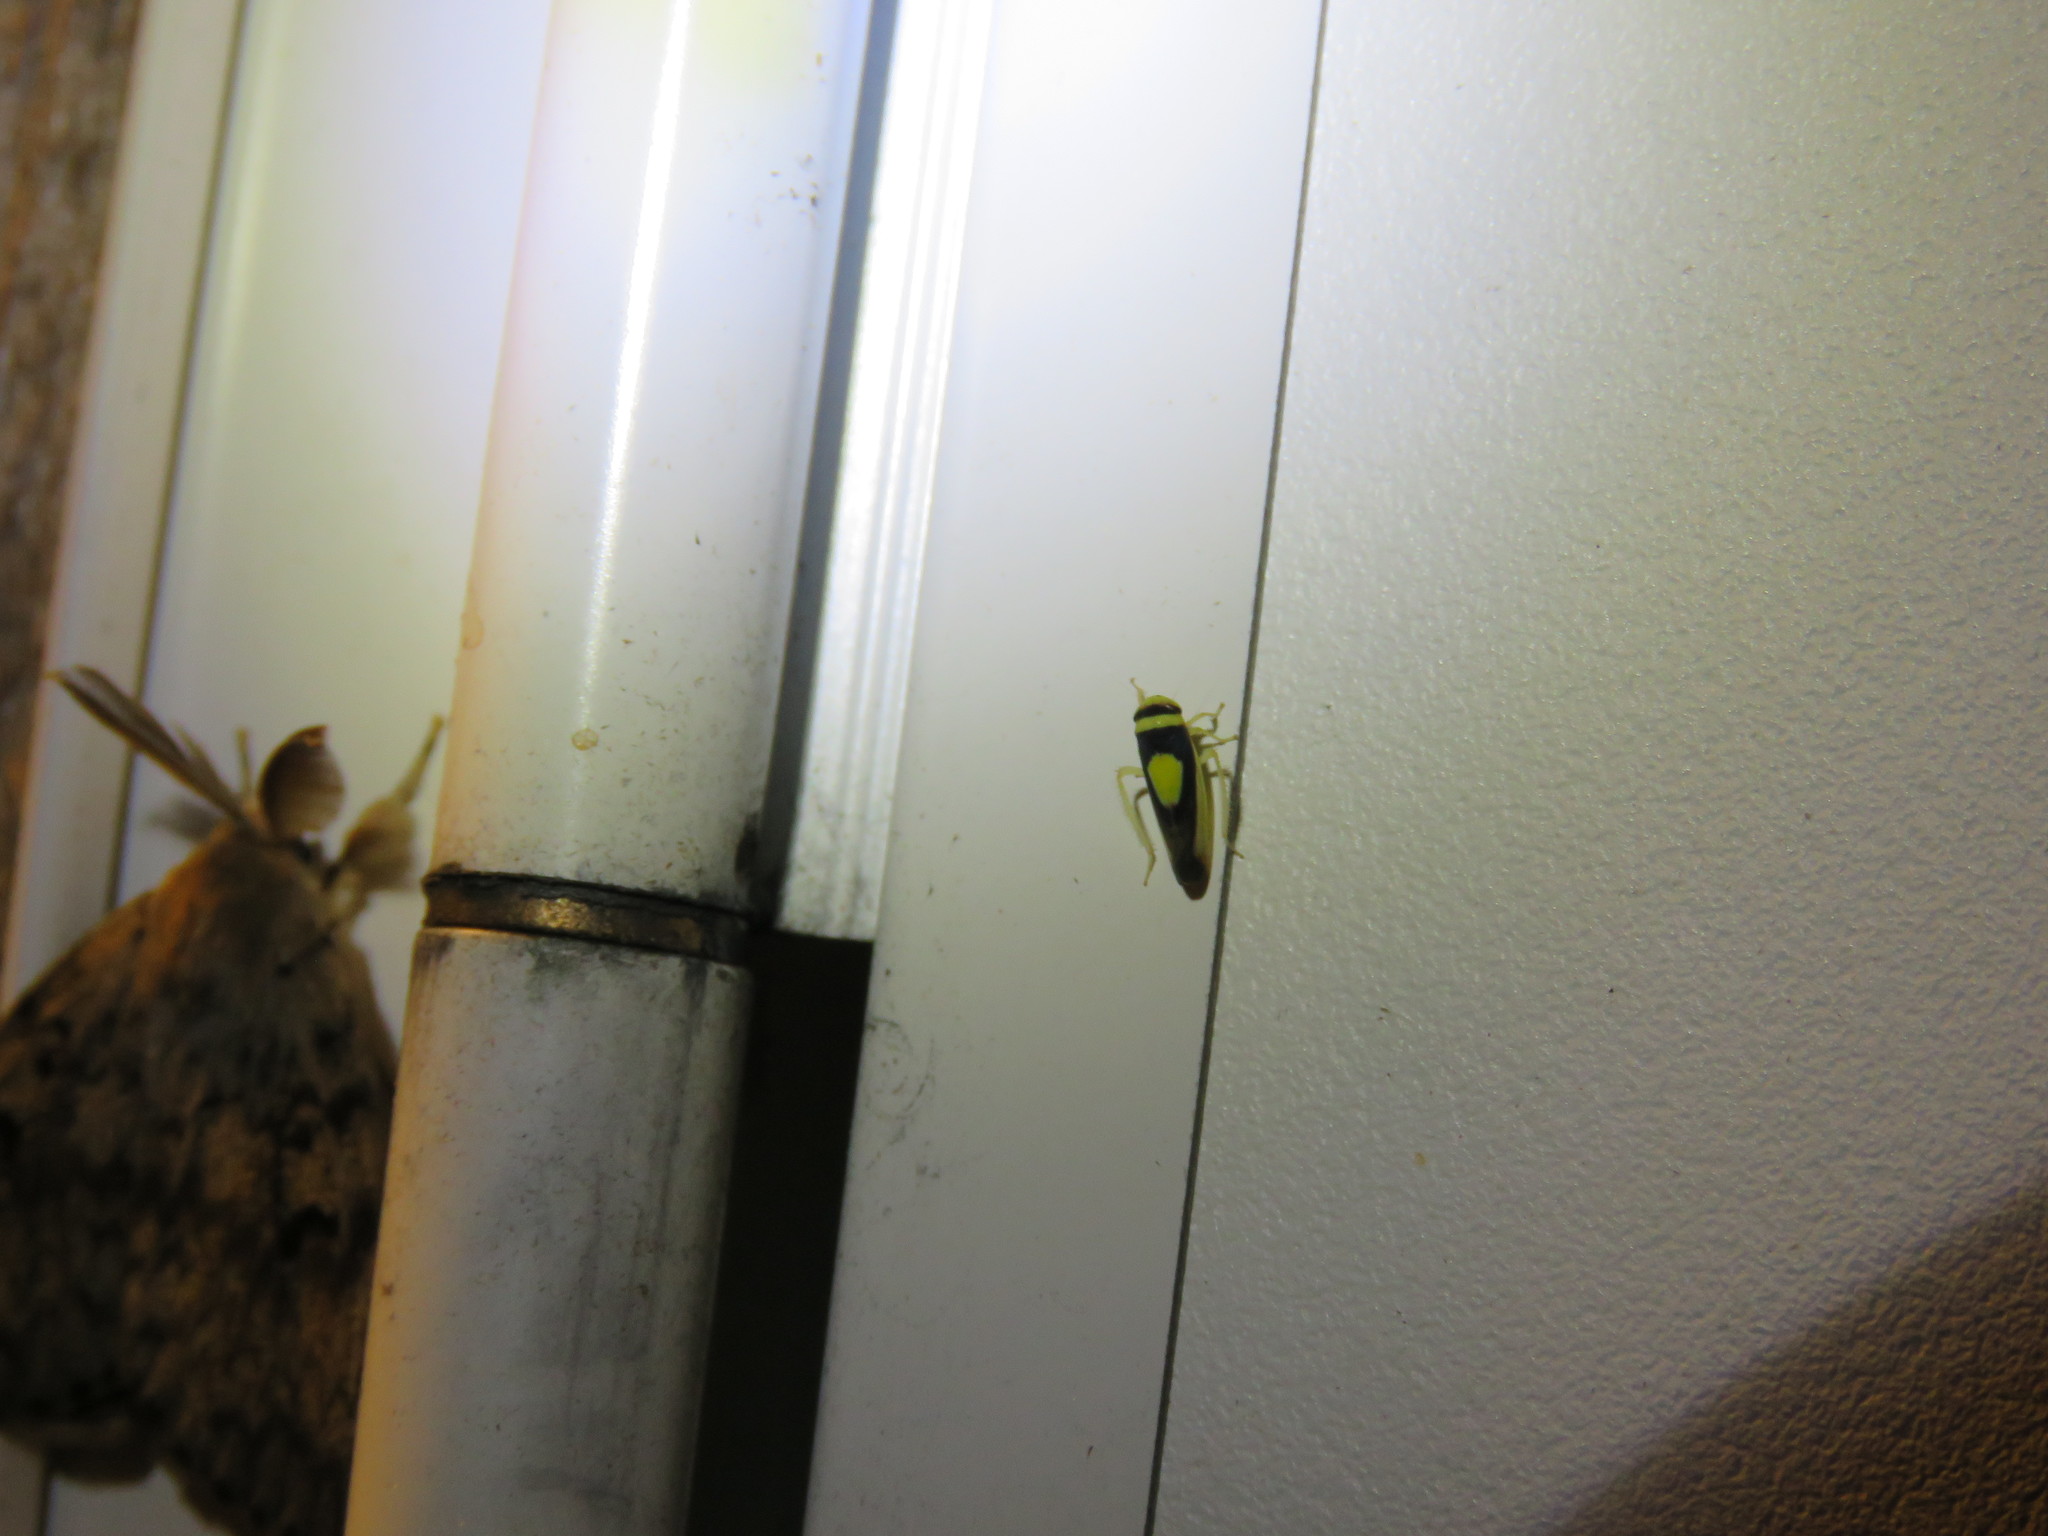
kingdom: Animalia
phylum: Arthropoda
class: Insecta
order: Hemiptera
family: Cicadellidae
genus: Colladonus
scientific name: Colladonus clitellarius
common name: The saddleback leafhopper
